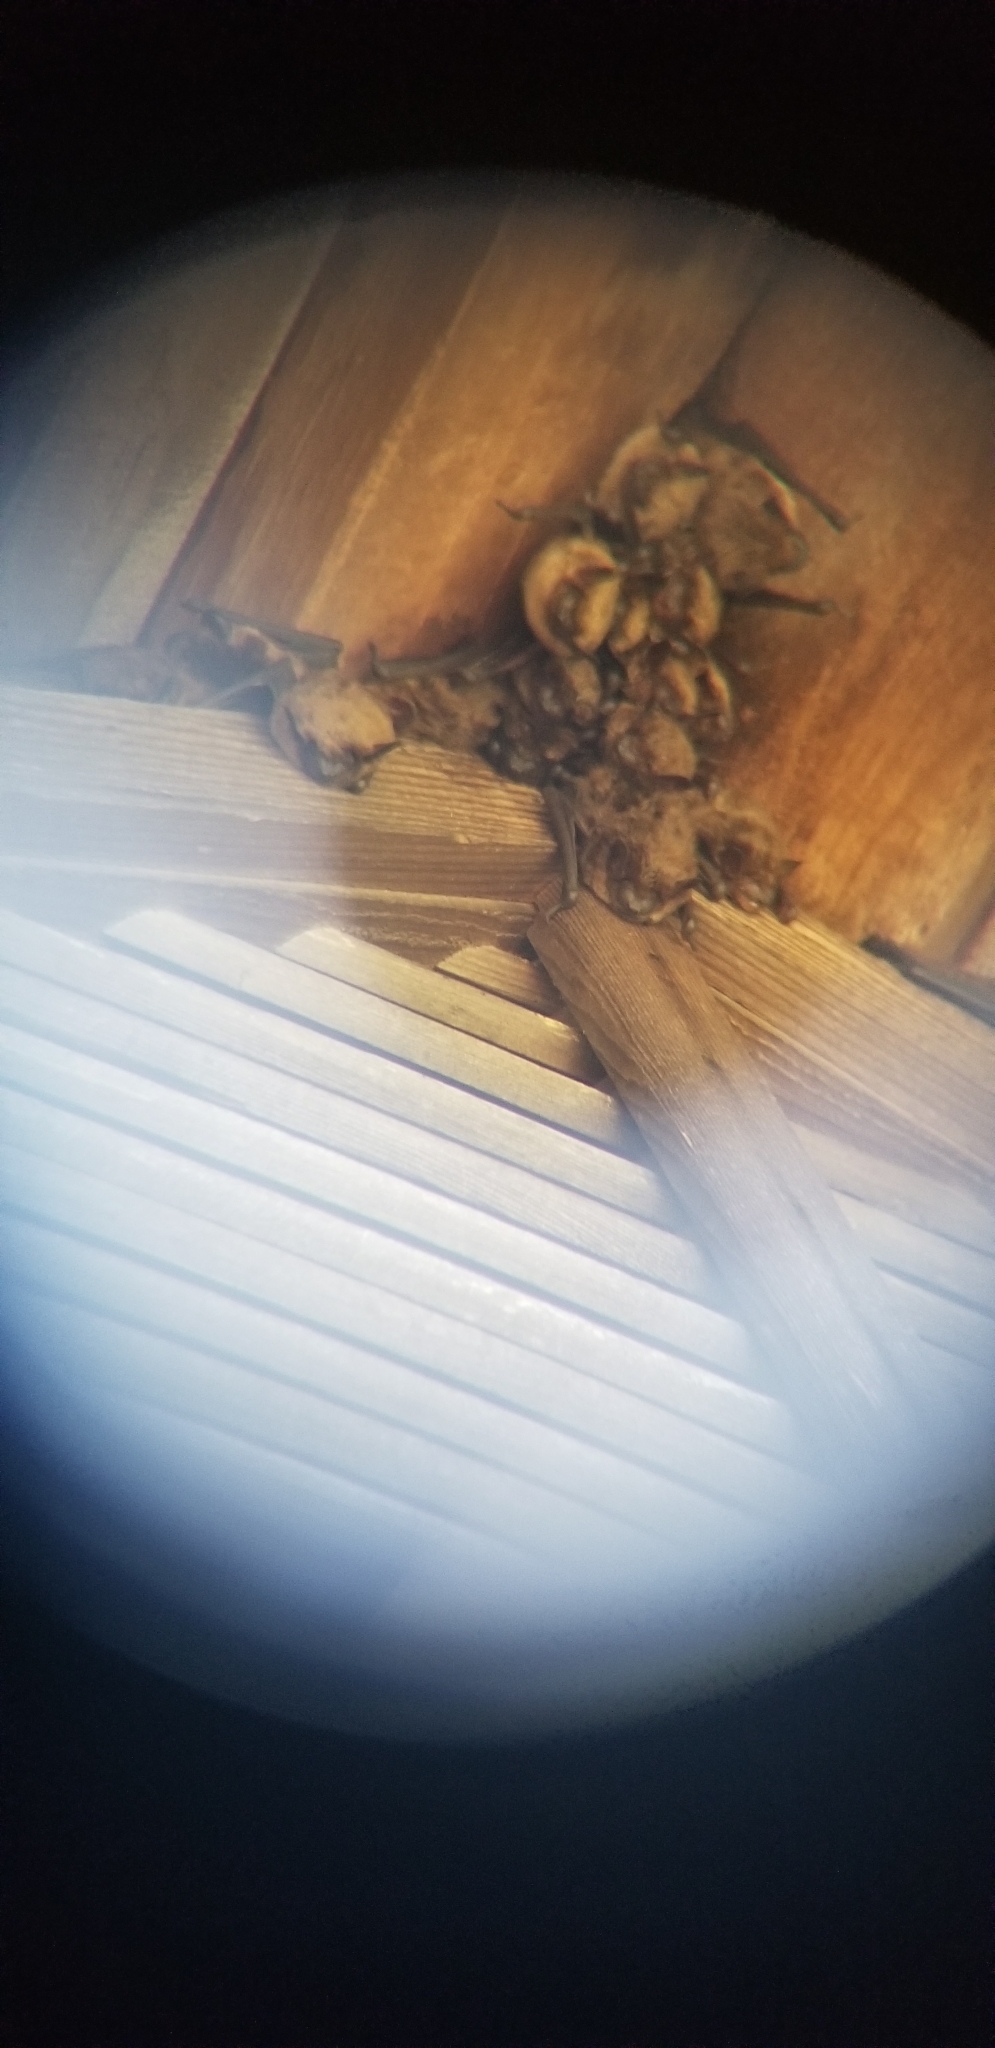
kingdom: Animalia
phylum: Chordata
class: Mammalia
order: Chiroptera
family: Vespertilionidae
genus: Eptesicus
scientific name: Eptesicus fuscus
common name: Big brown bat
